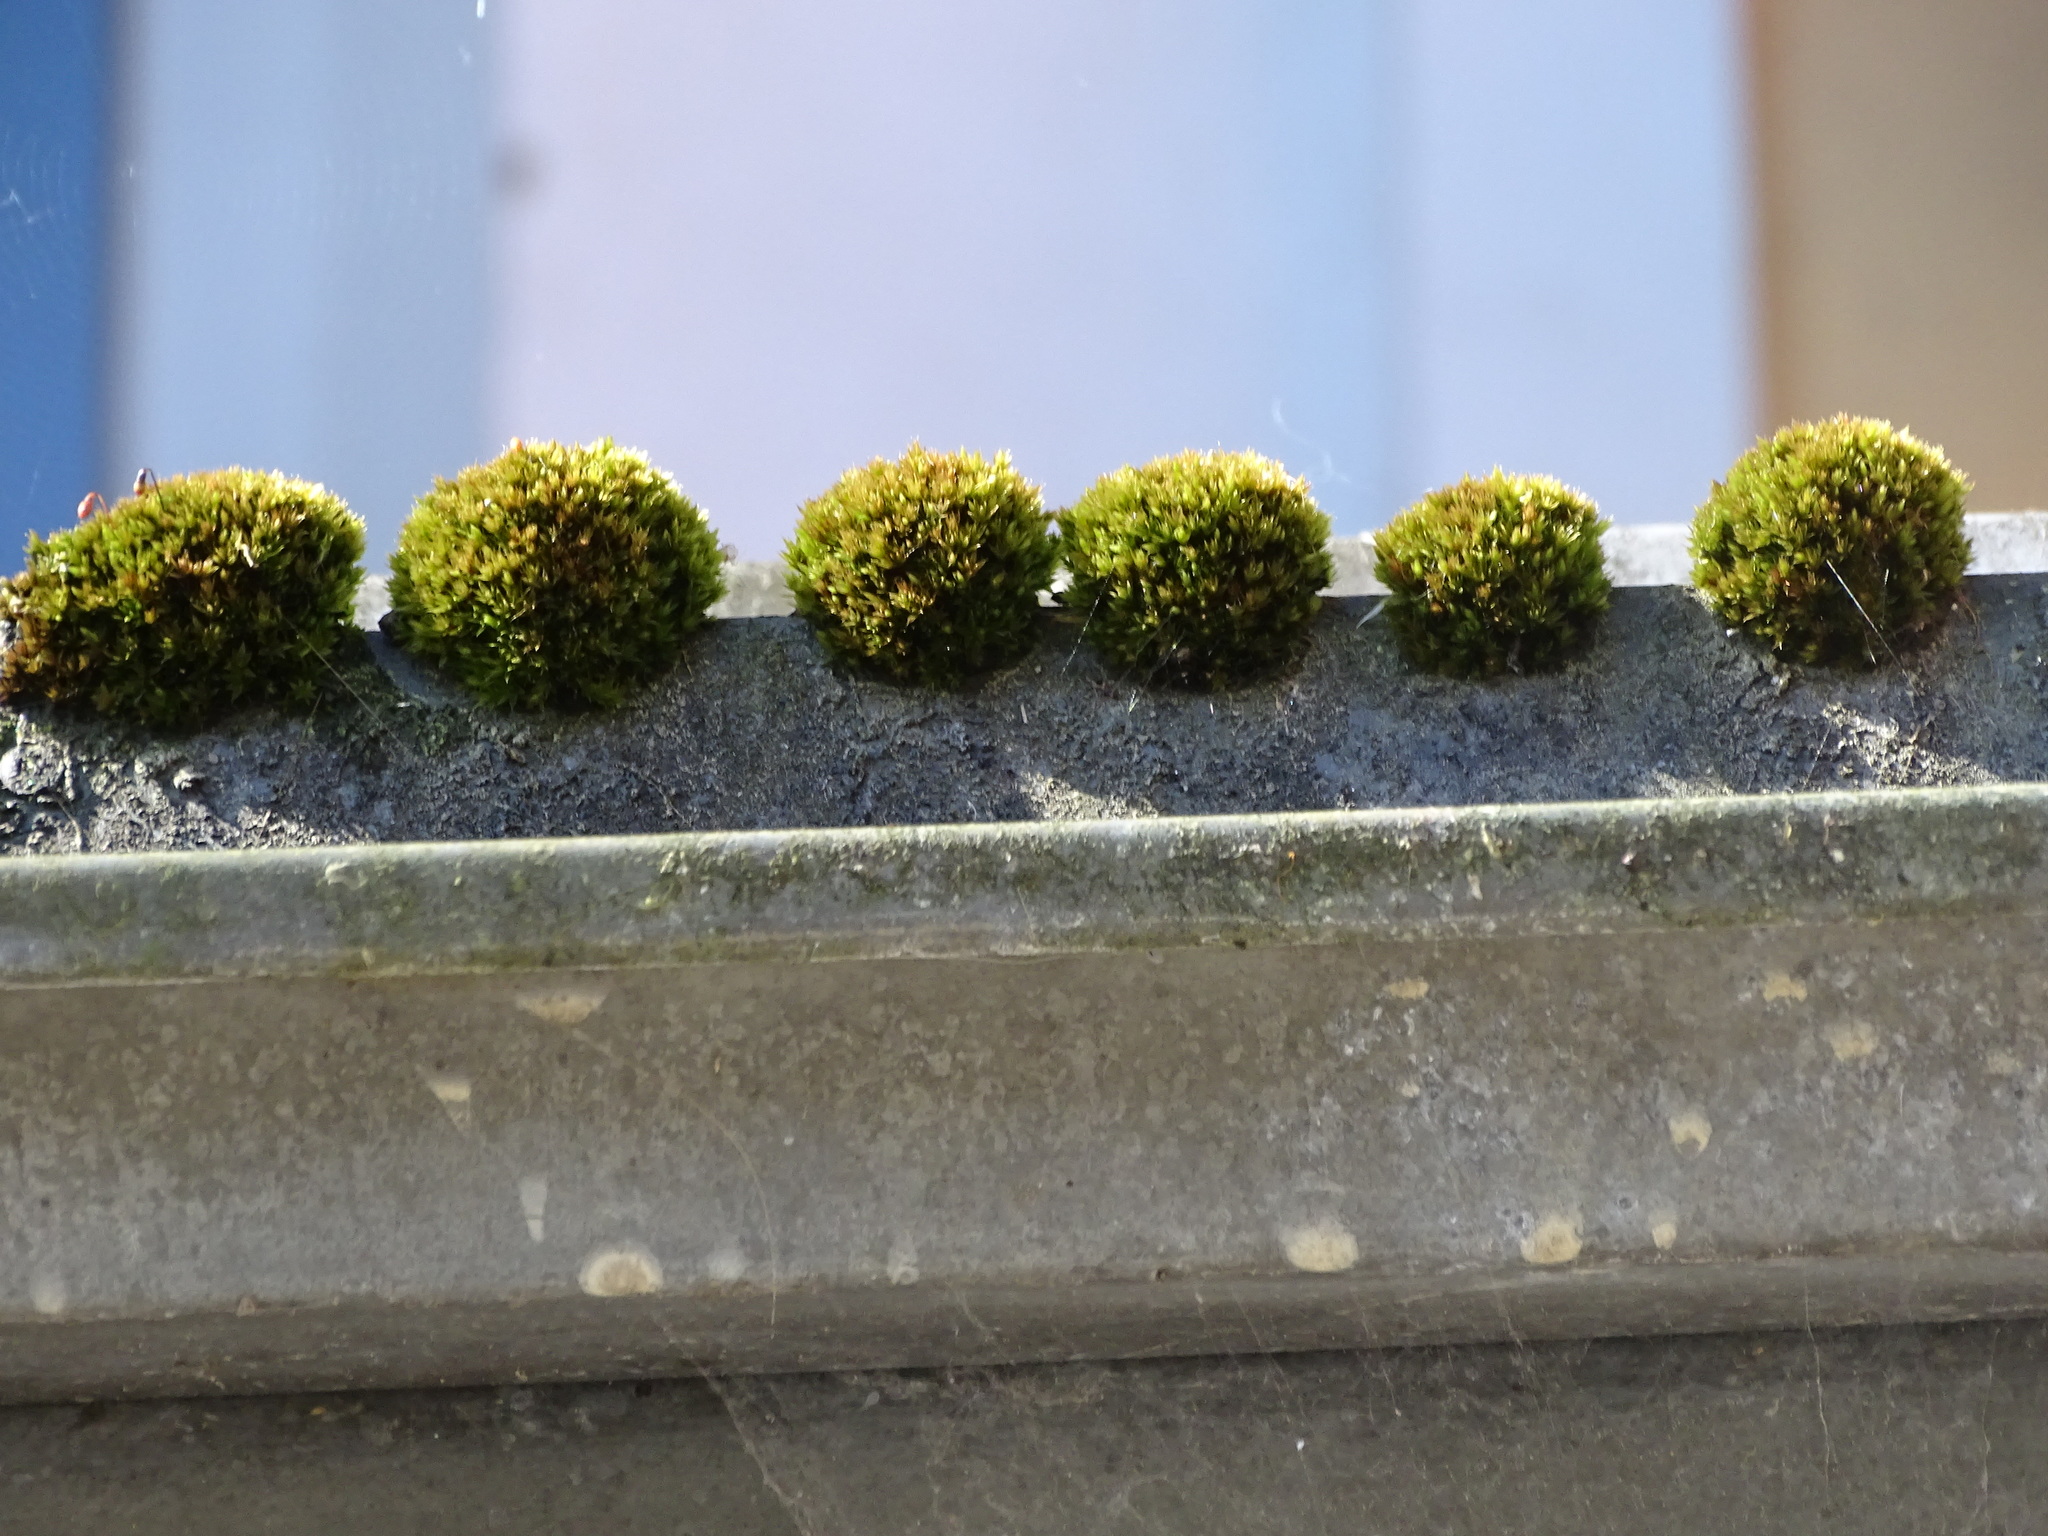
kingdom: Plantae
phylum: Bryophyta
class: Bryopsida
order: Bryales
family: Bryaceae
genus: Gemmabryum
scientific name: Gemmabryum caespiticium
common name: Handbell moss
